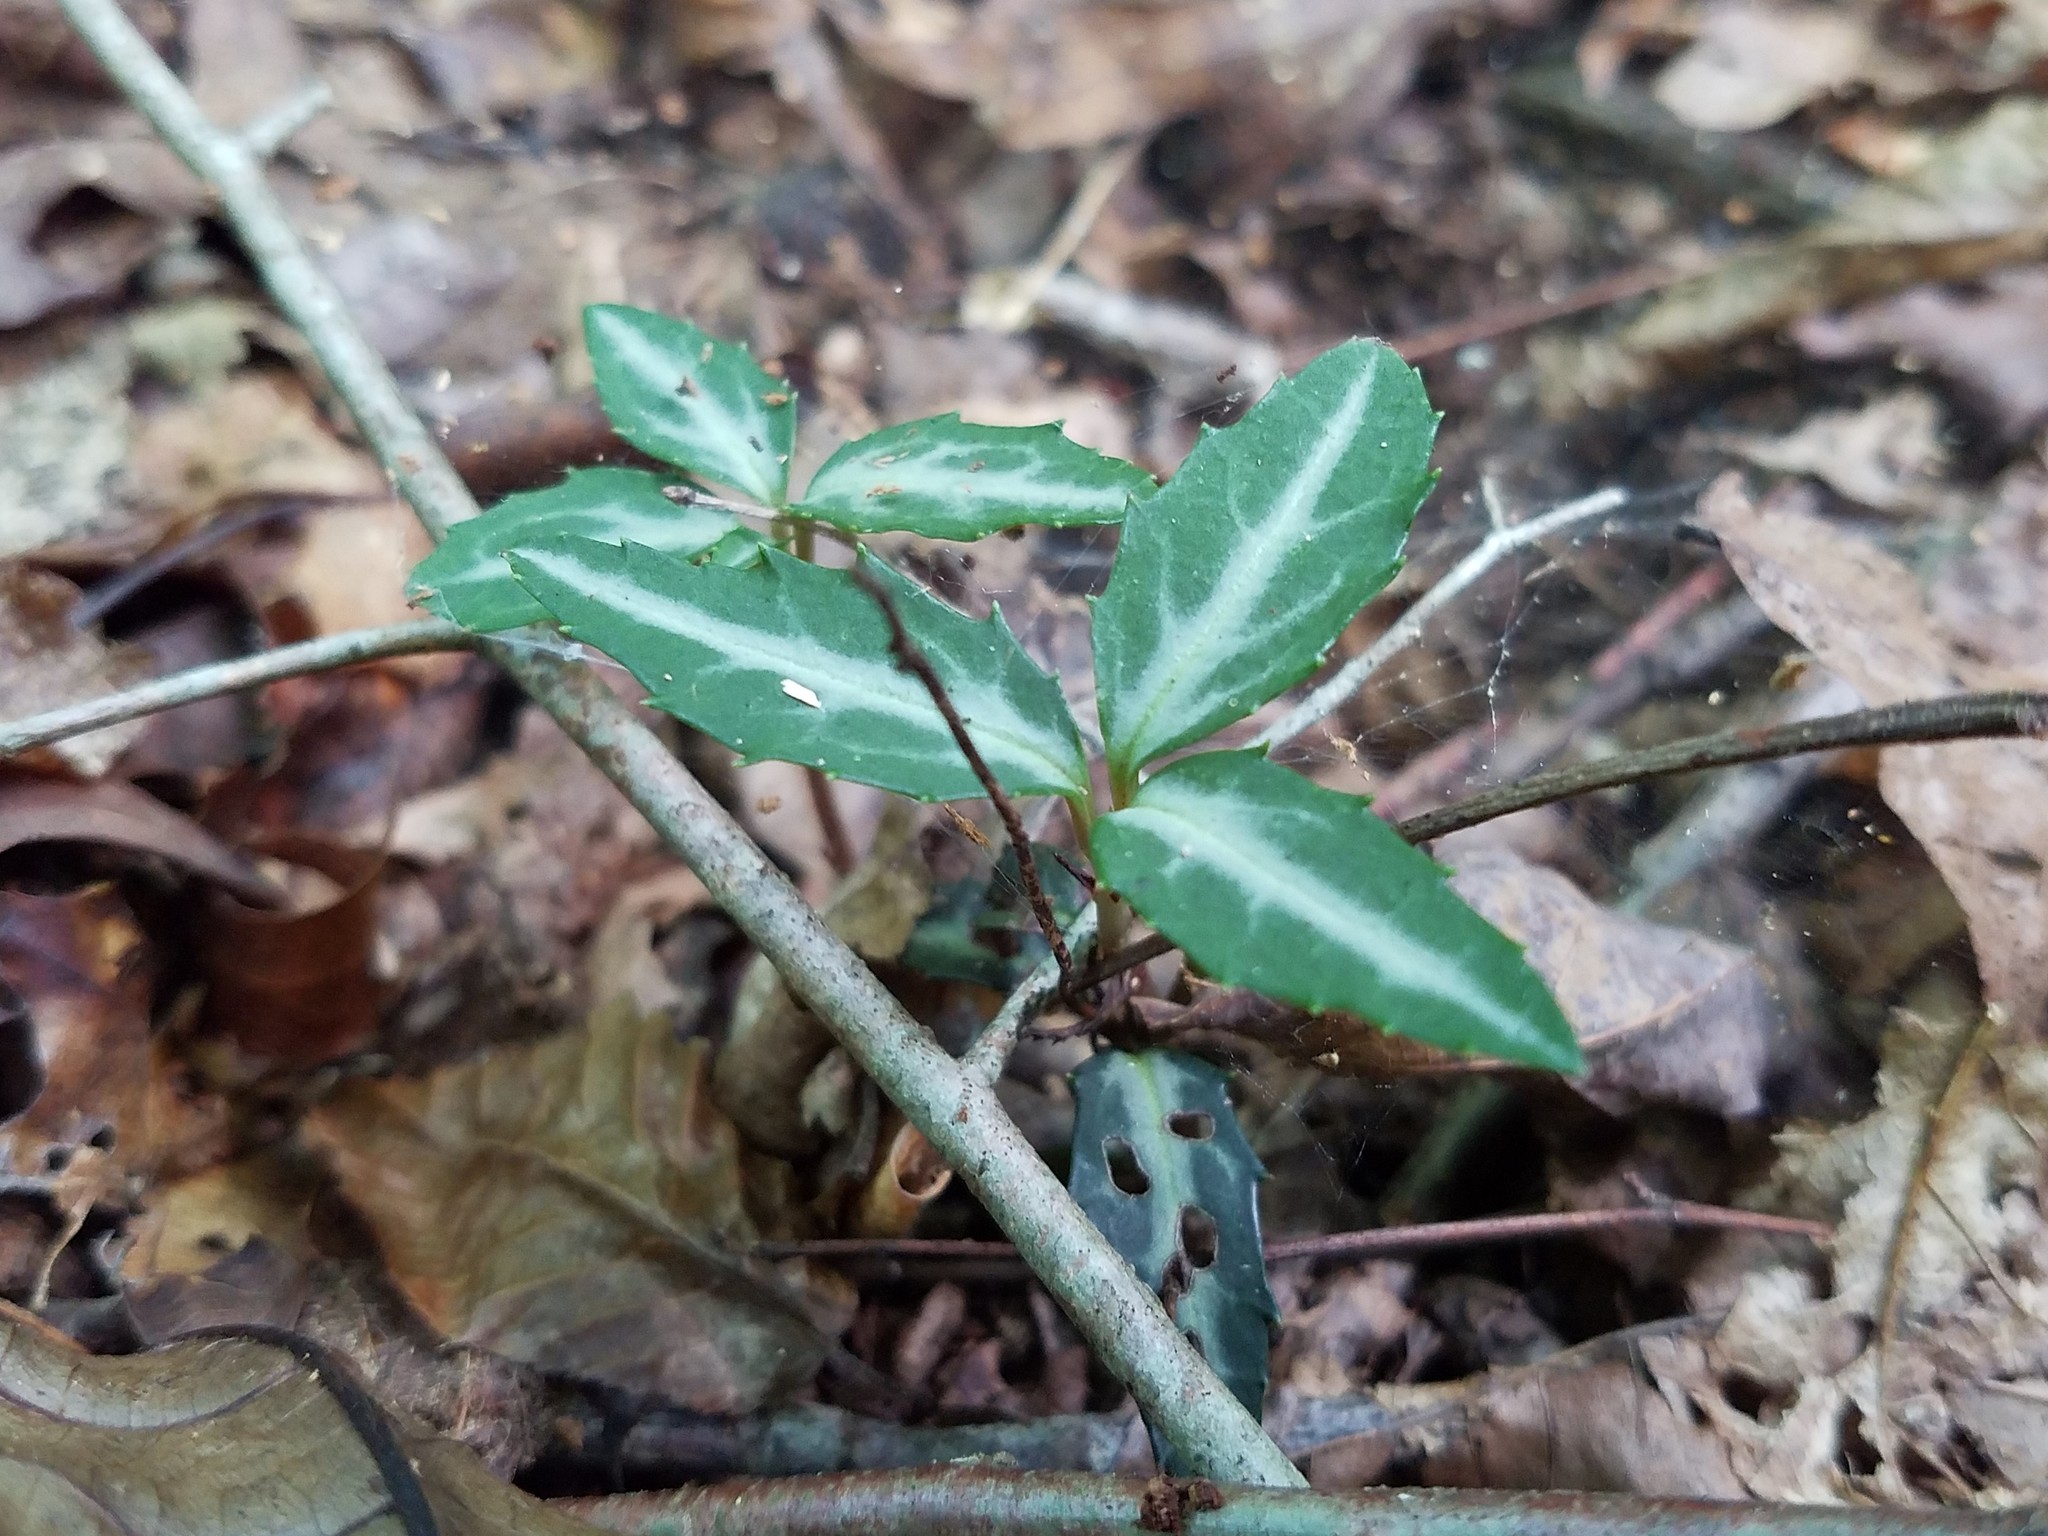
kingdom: Plantae
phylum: Tracheophyta
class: Magnoliopsida
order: Ericales
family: Ericaceae
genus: Chimaphila
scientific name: Chimaphila maculata
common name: Spotted pipsissewa
